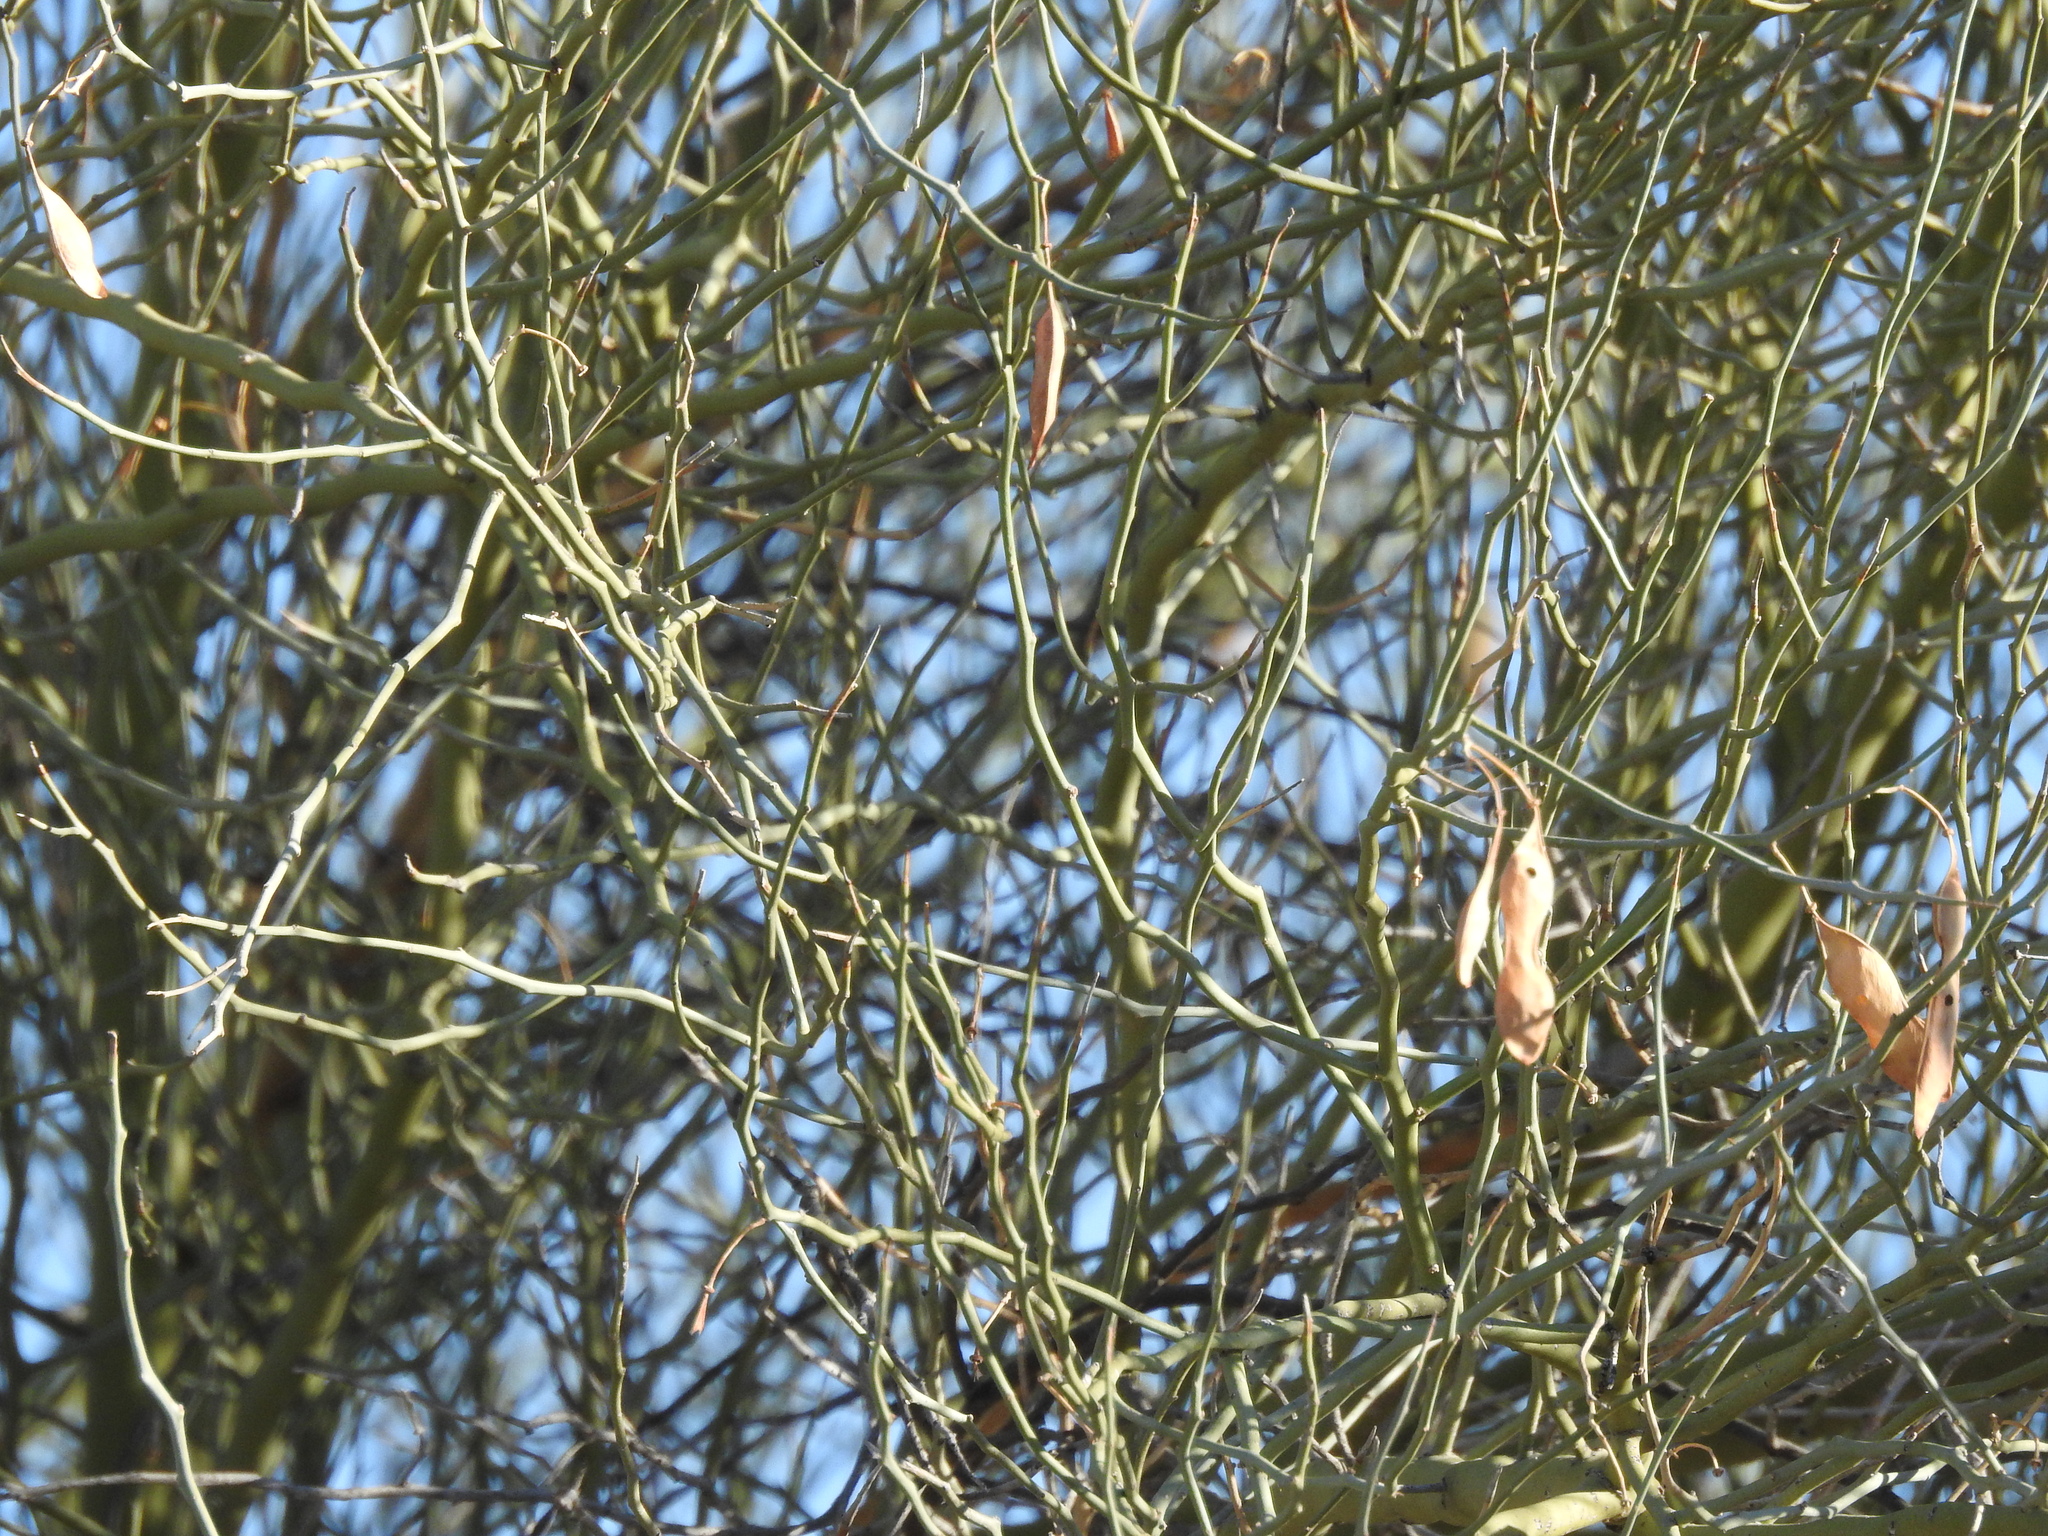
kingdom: Plantae
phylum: Tracheophyta
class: Magnoliopsida
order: Fabales
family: Fabaceae
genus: Parkinsonia
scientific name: Parkinsonia florida
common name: Blue paloverde
